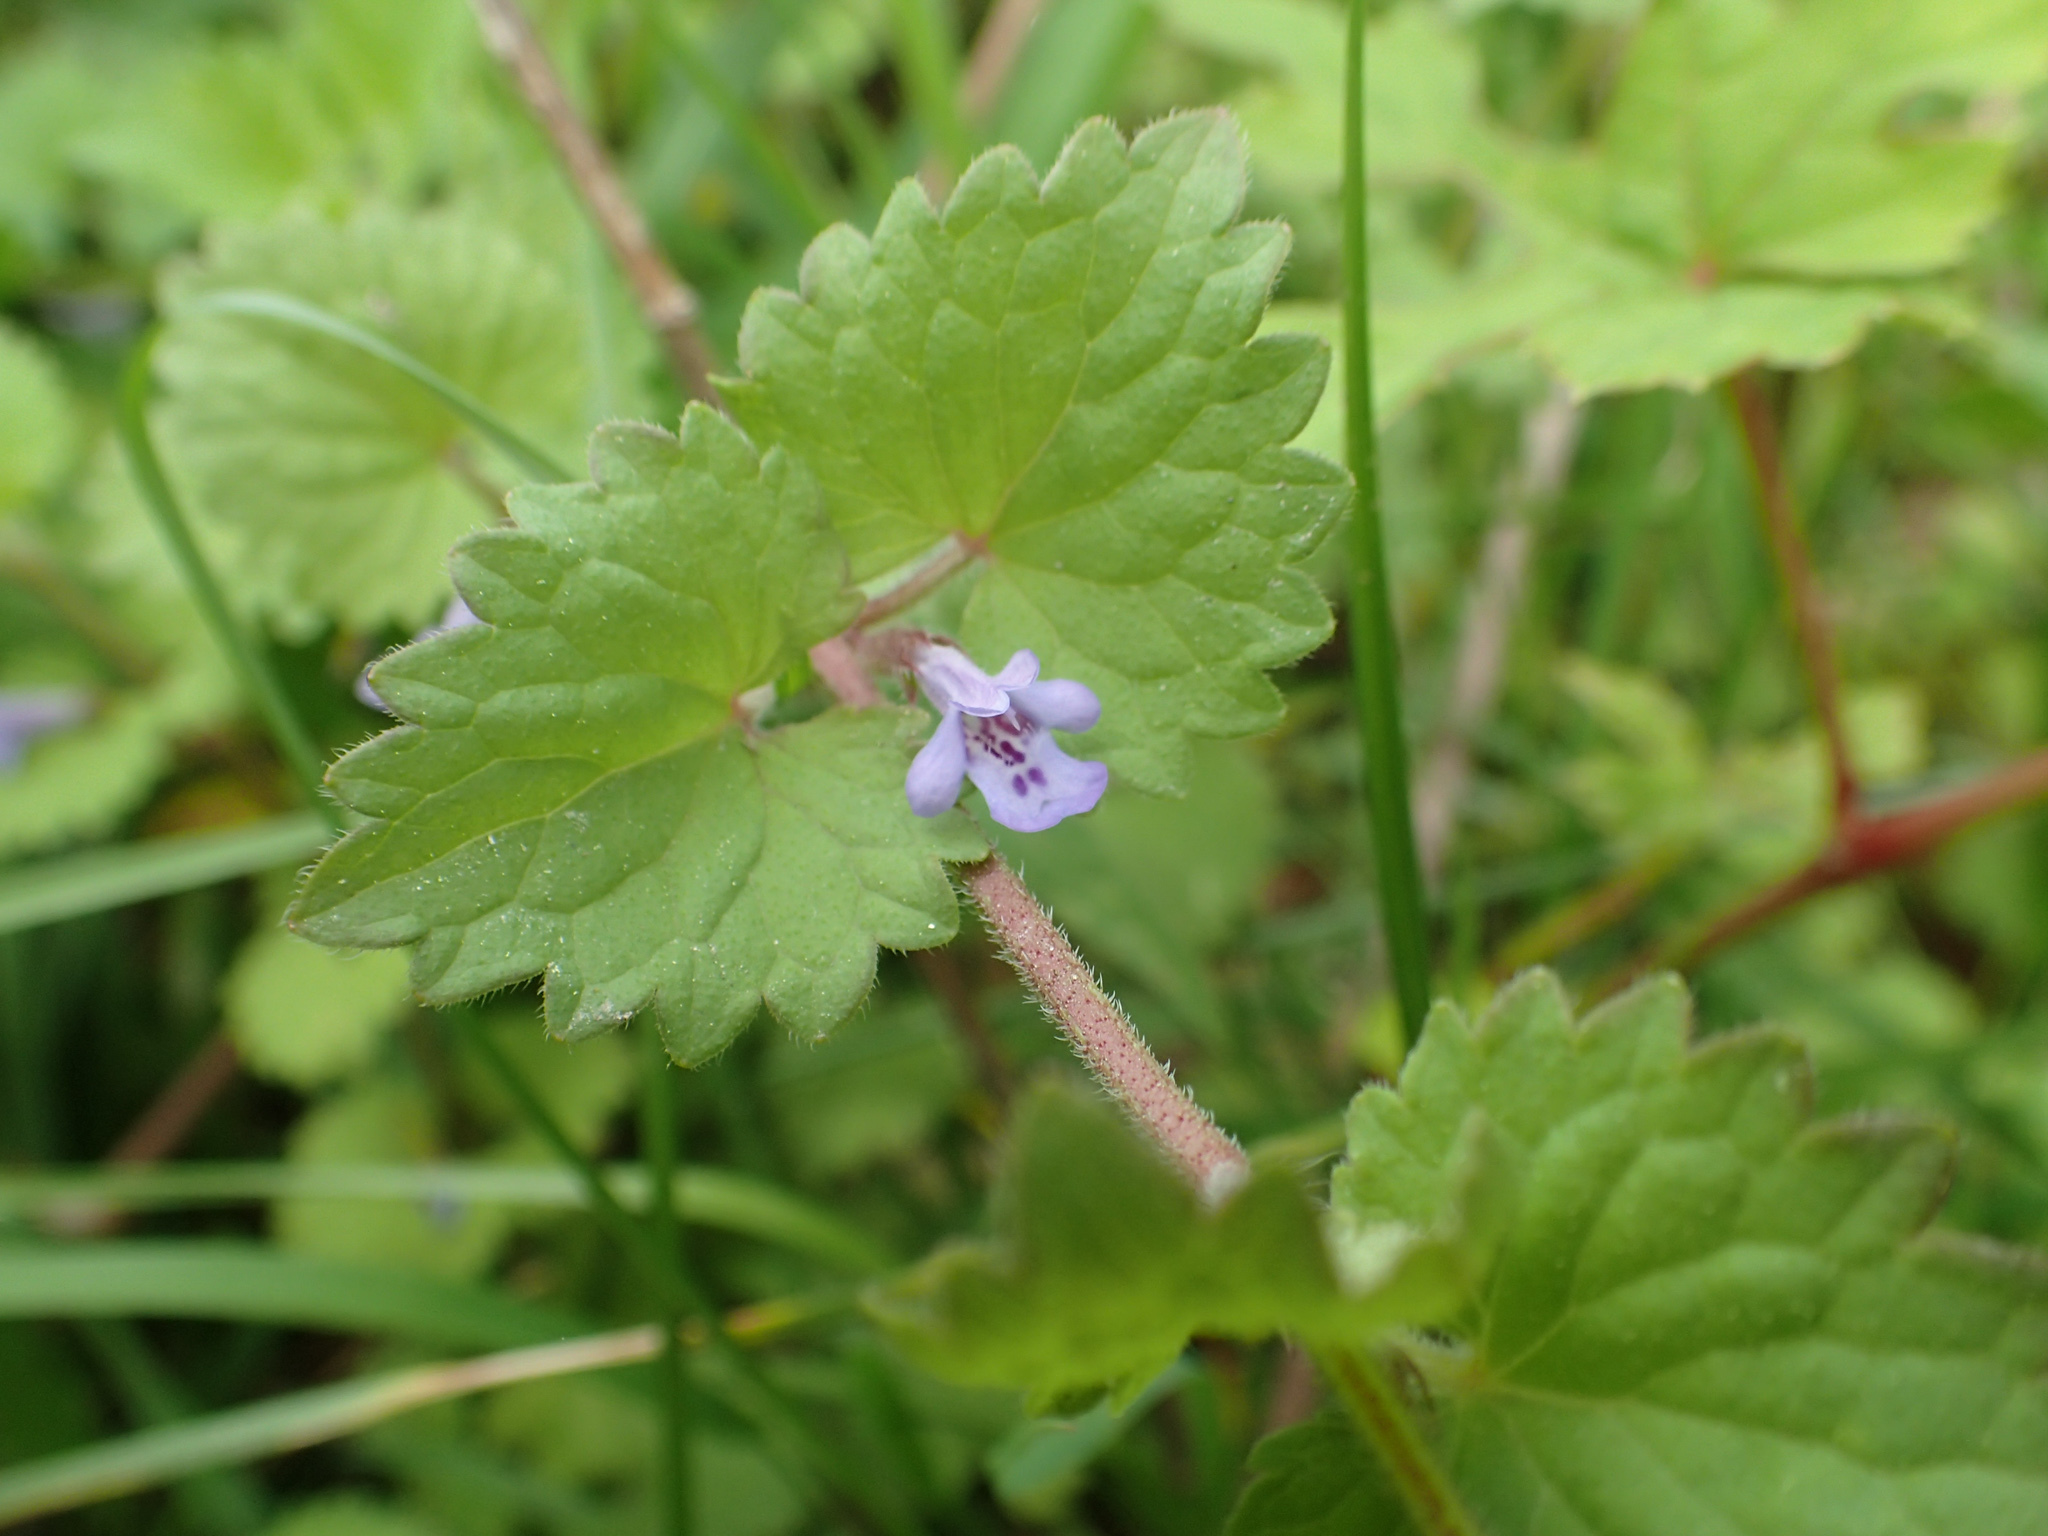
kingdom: Plantae
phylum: Tracheophyta
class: Magnoliopsida
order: Lamiales
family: Lamiaceae
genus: Glechoma
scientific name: Glechoma hederacea
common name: Ground ivy
